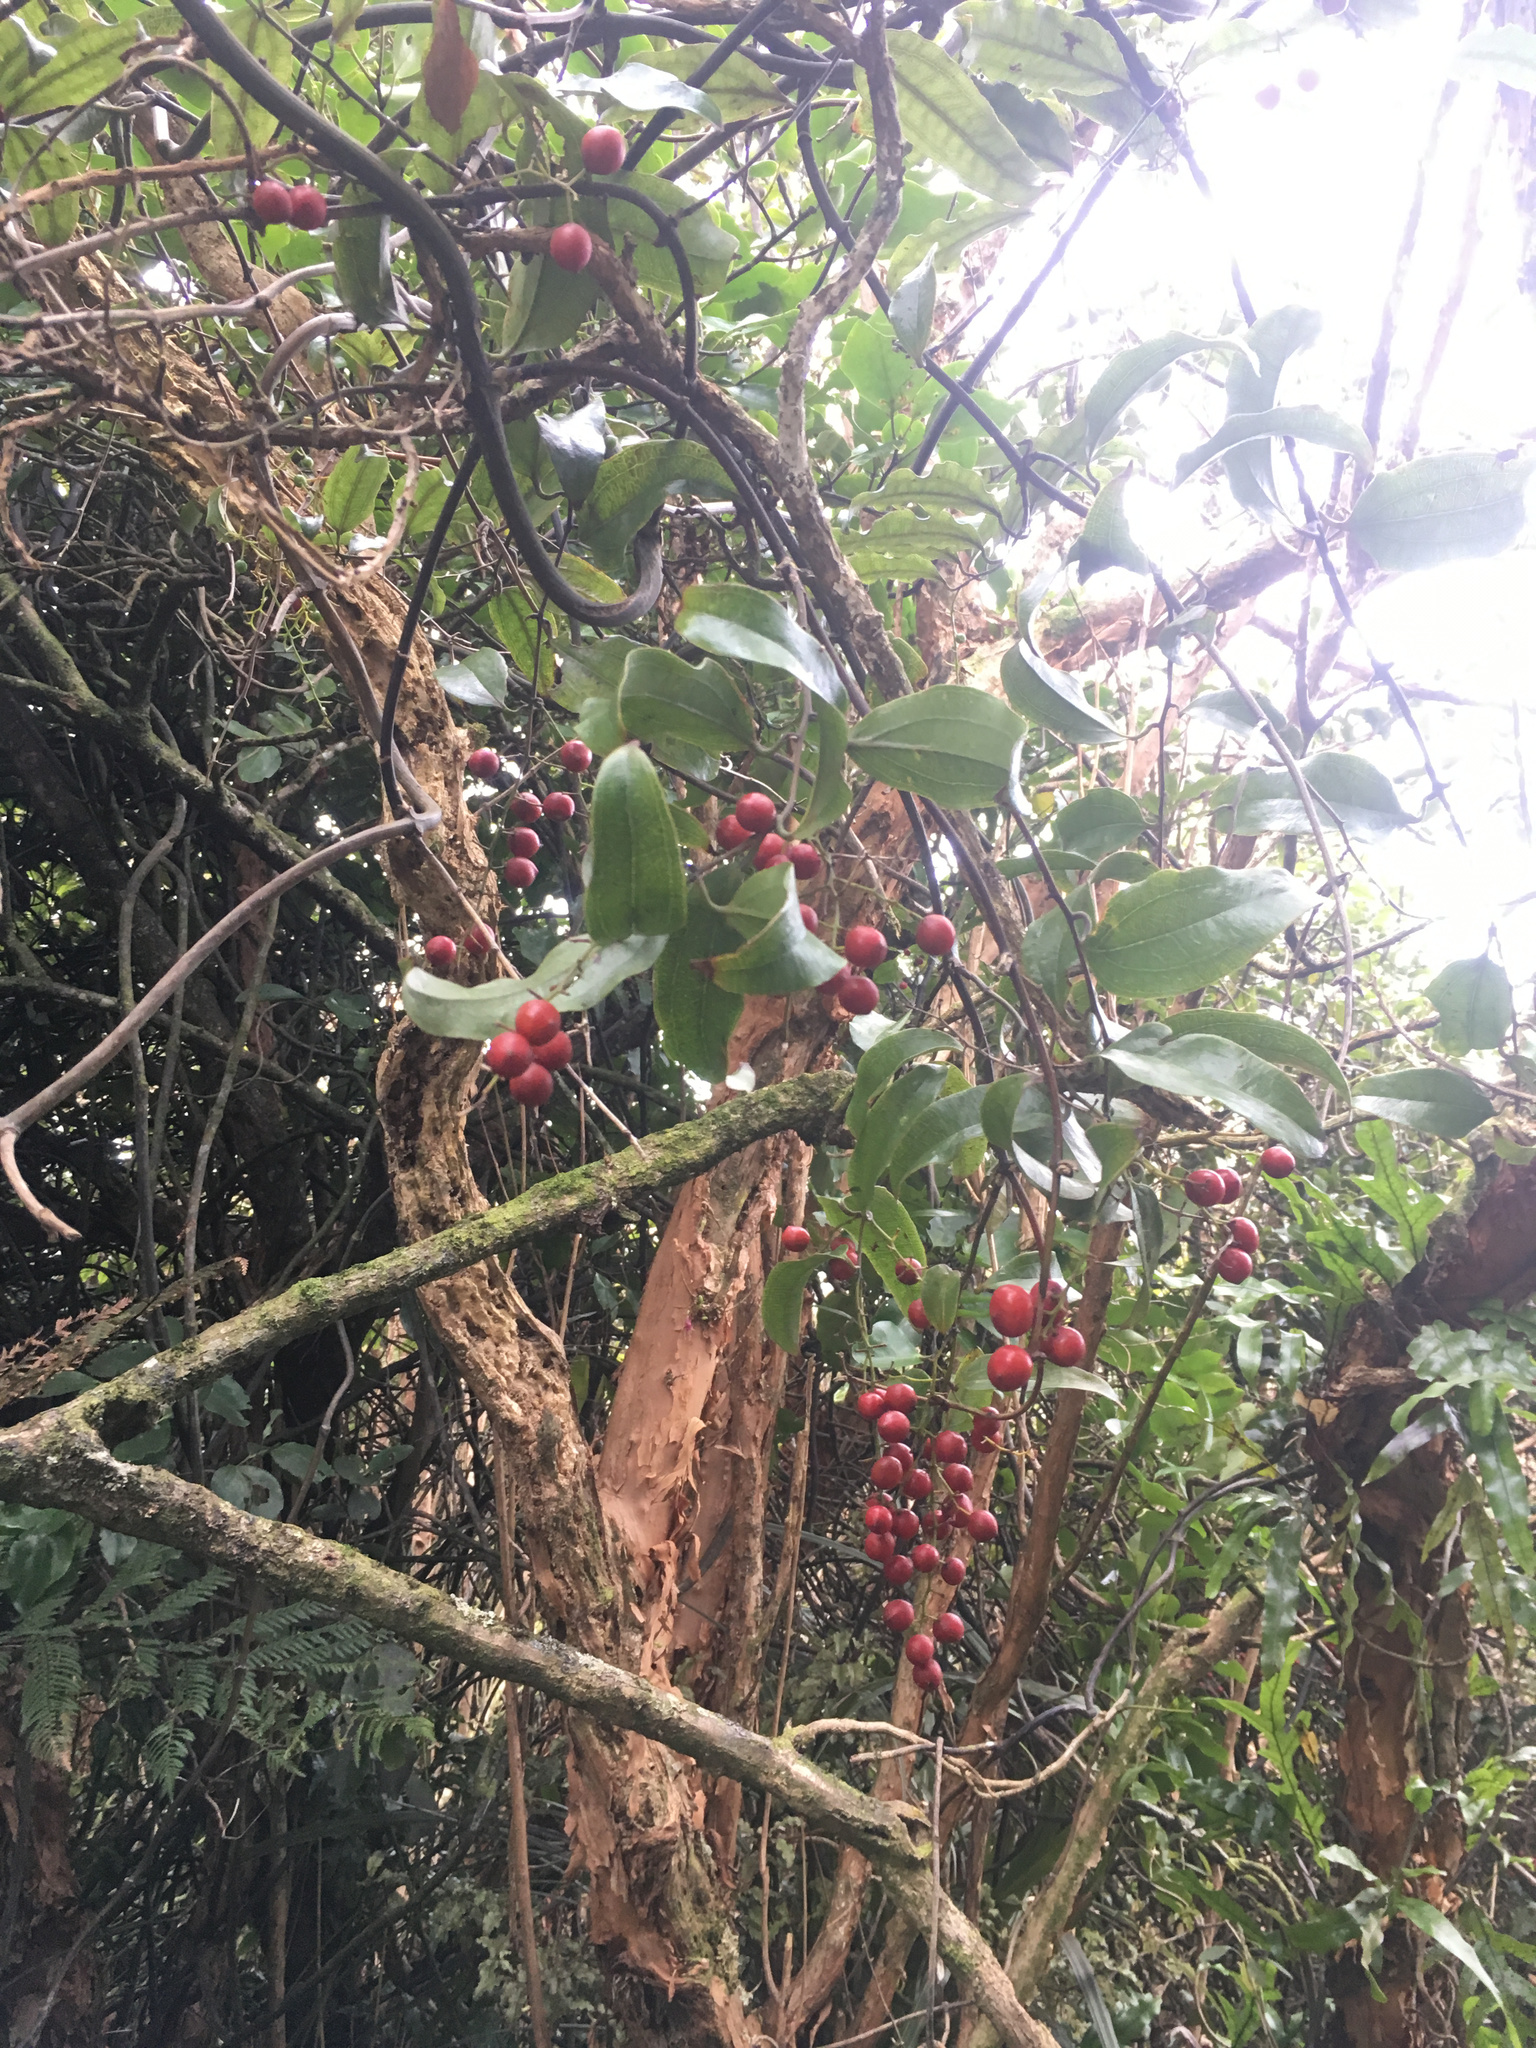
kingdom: Plantae
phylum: Tracheophyta
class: Liliopsida
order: Liliales
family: Ripogonaceae
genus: Ripogonum
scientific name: Ripogonum scandens
